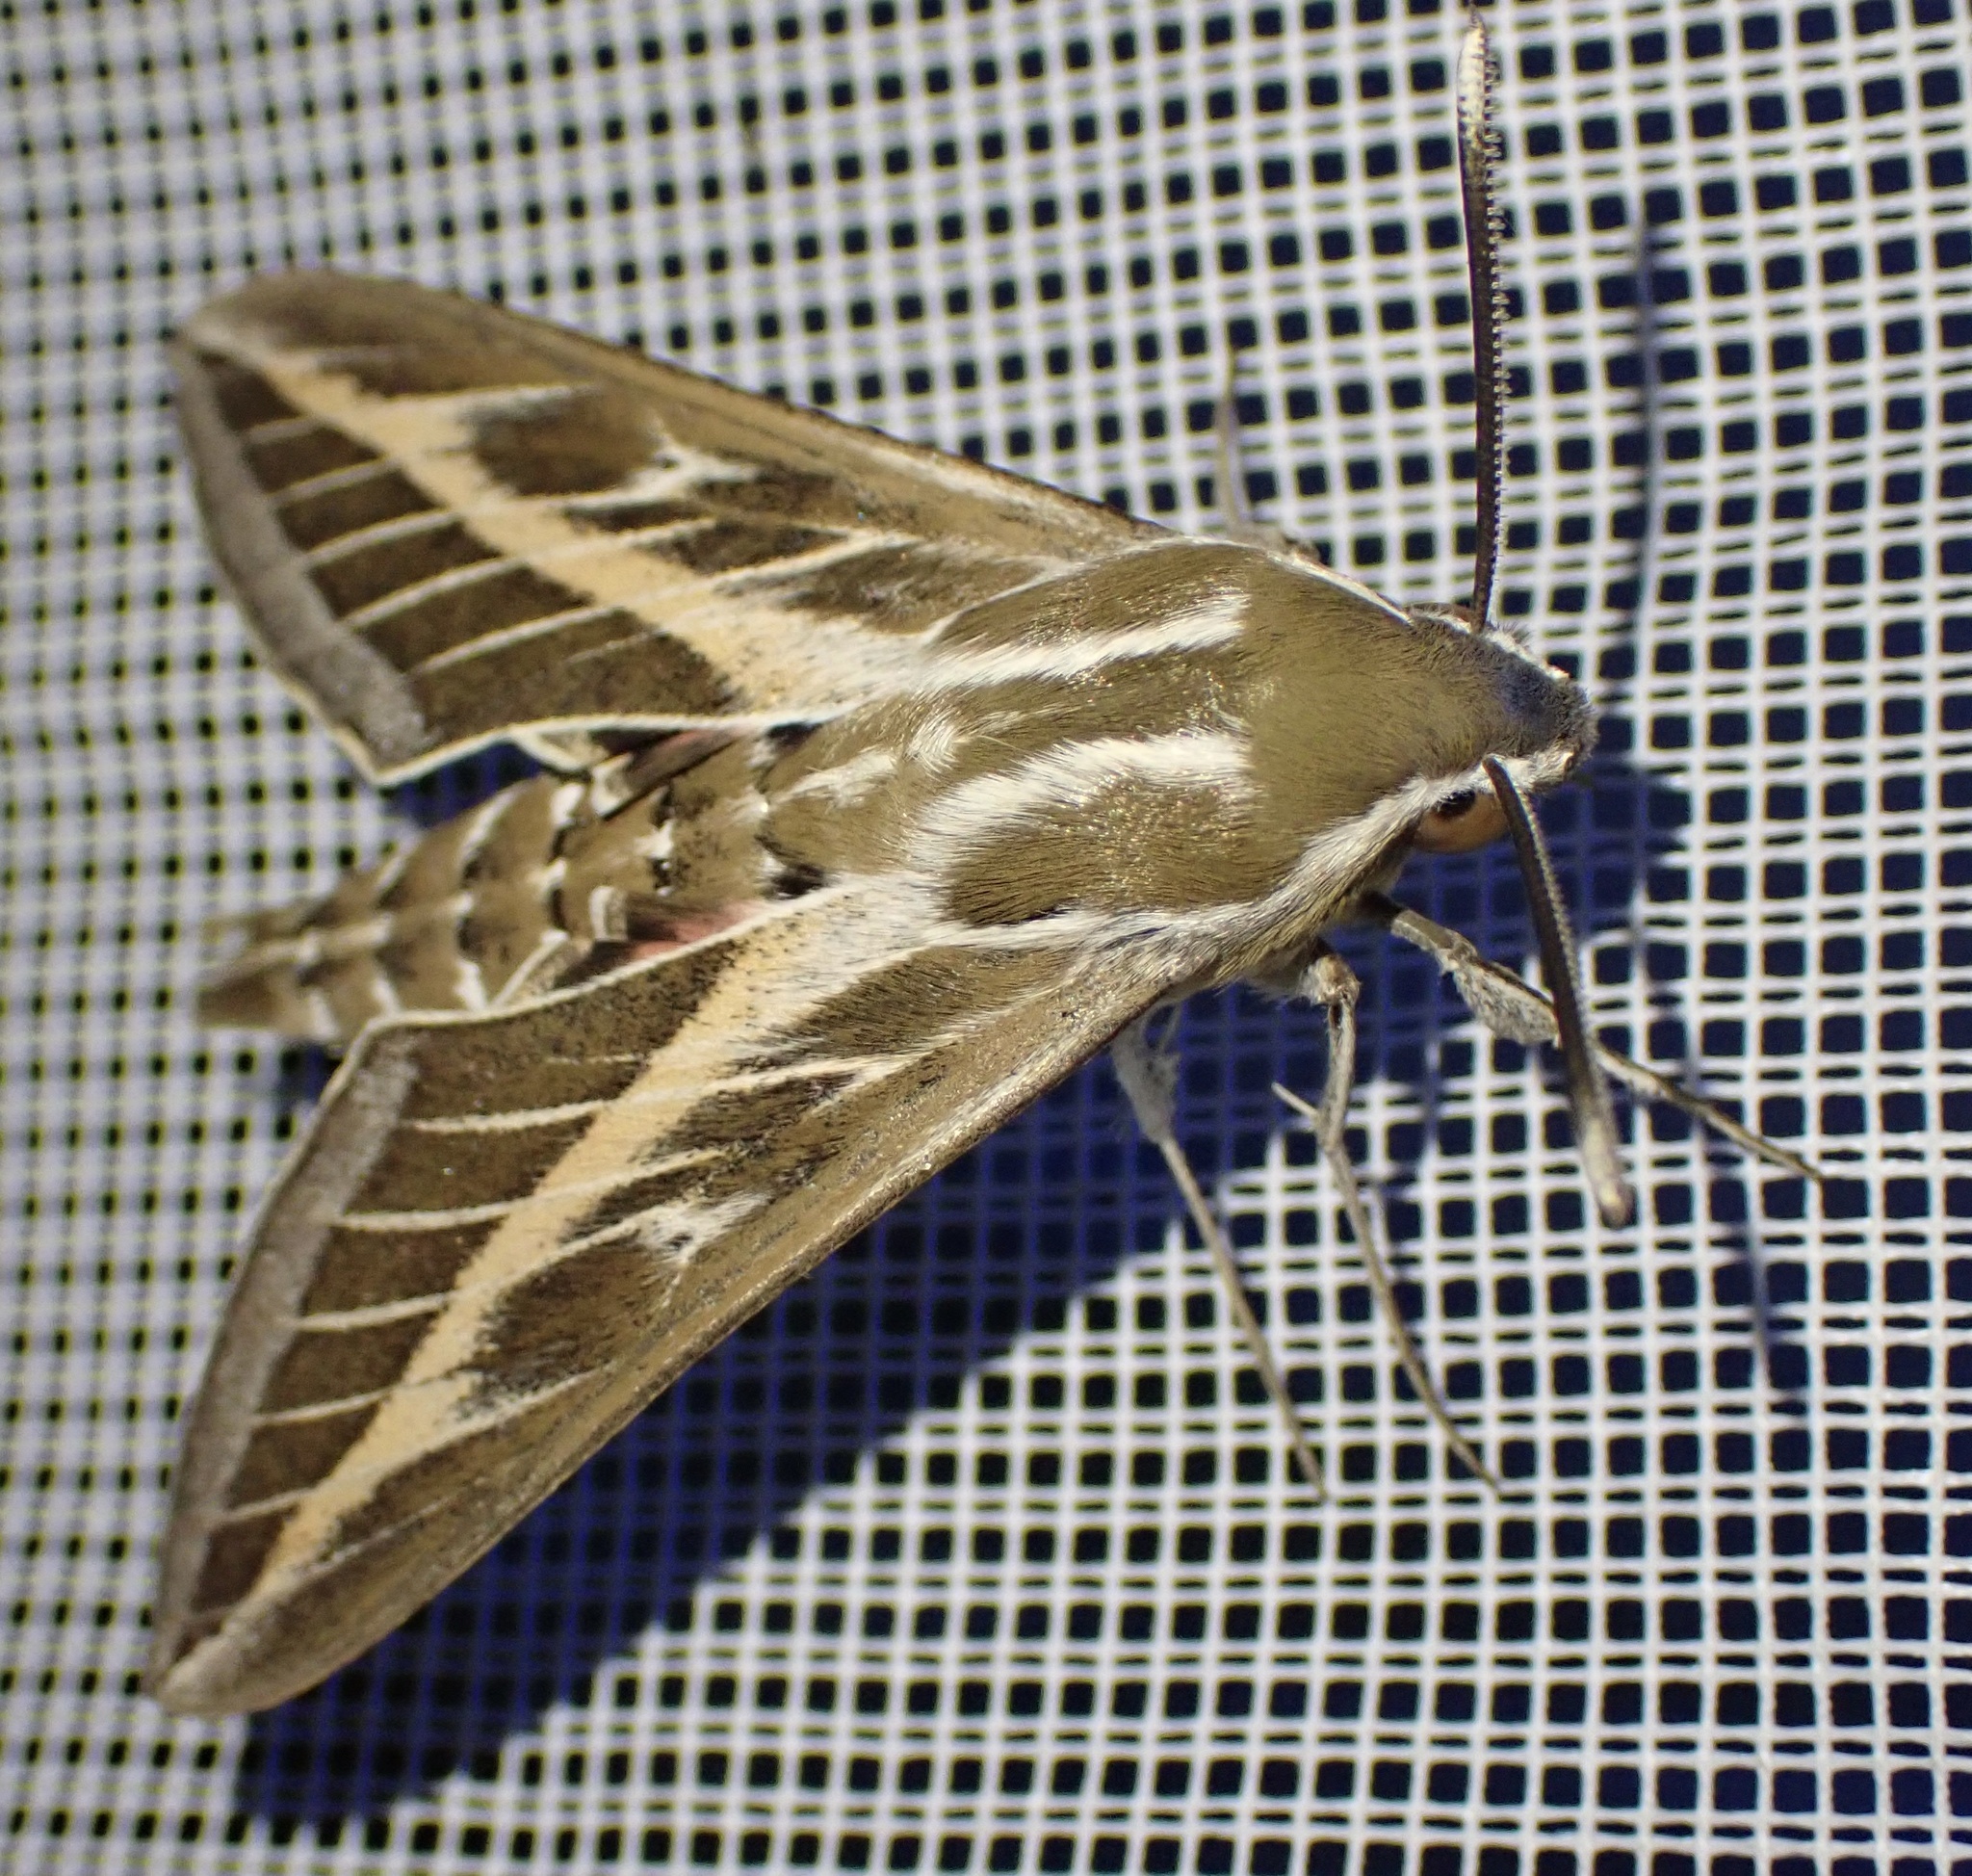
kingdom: Animalia
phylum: Arthropoda
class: Insecta
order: Lepidoptera
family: Sphingidae
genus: Hyles
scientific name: Hyles livornica
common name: Striped hawk-moth
